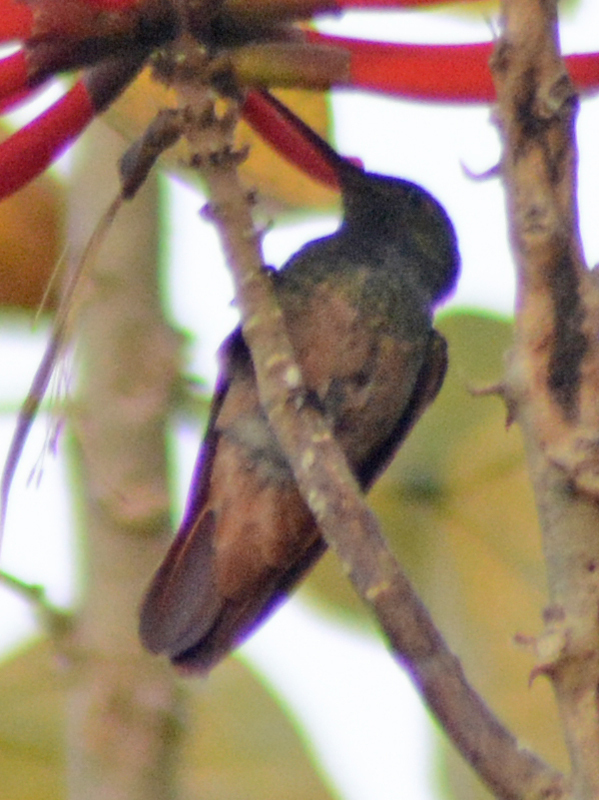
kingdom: Animalia
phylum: Chordata
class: Aves
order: Apodiformes
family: Trochilidae
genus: Saucerottia
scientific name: Saucerottia beryllina
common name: Berylline hummingbird
